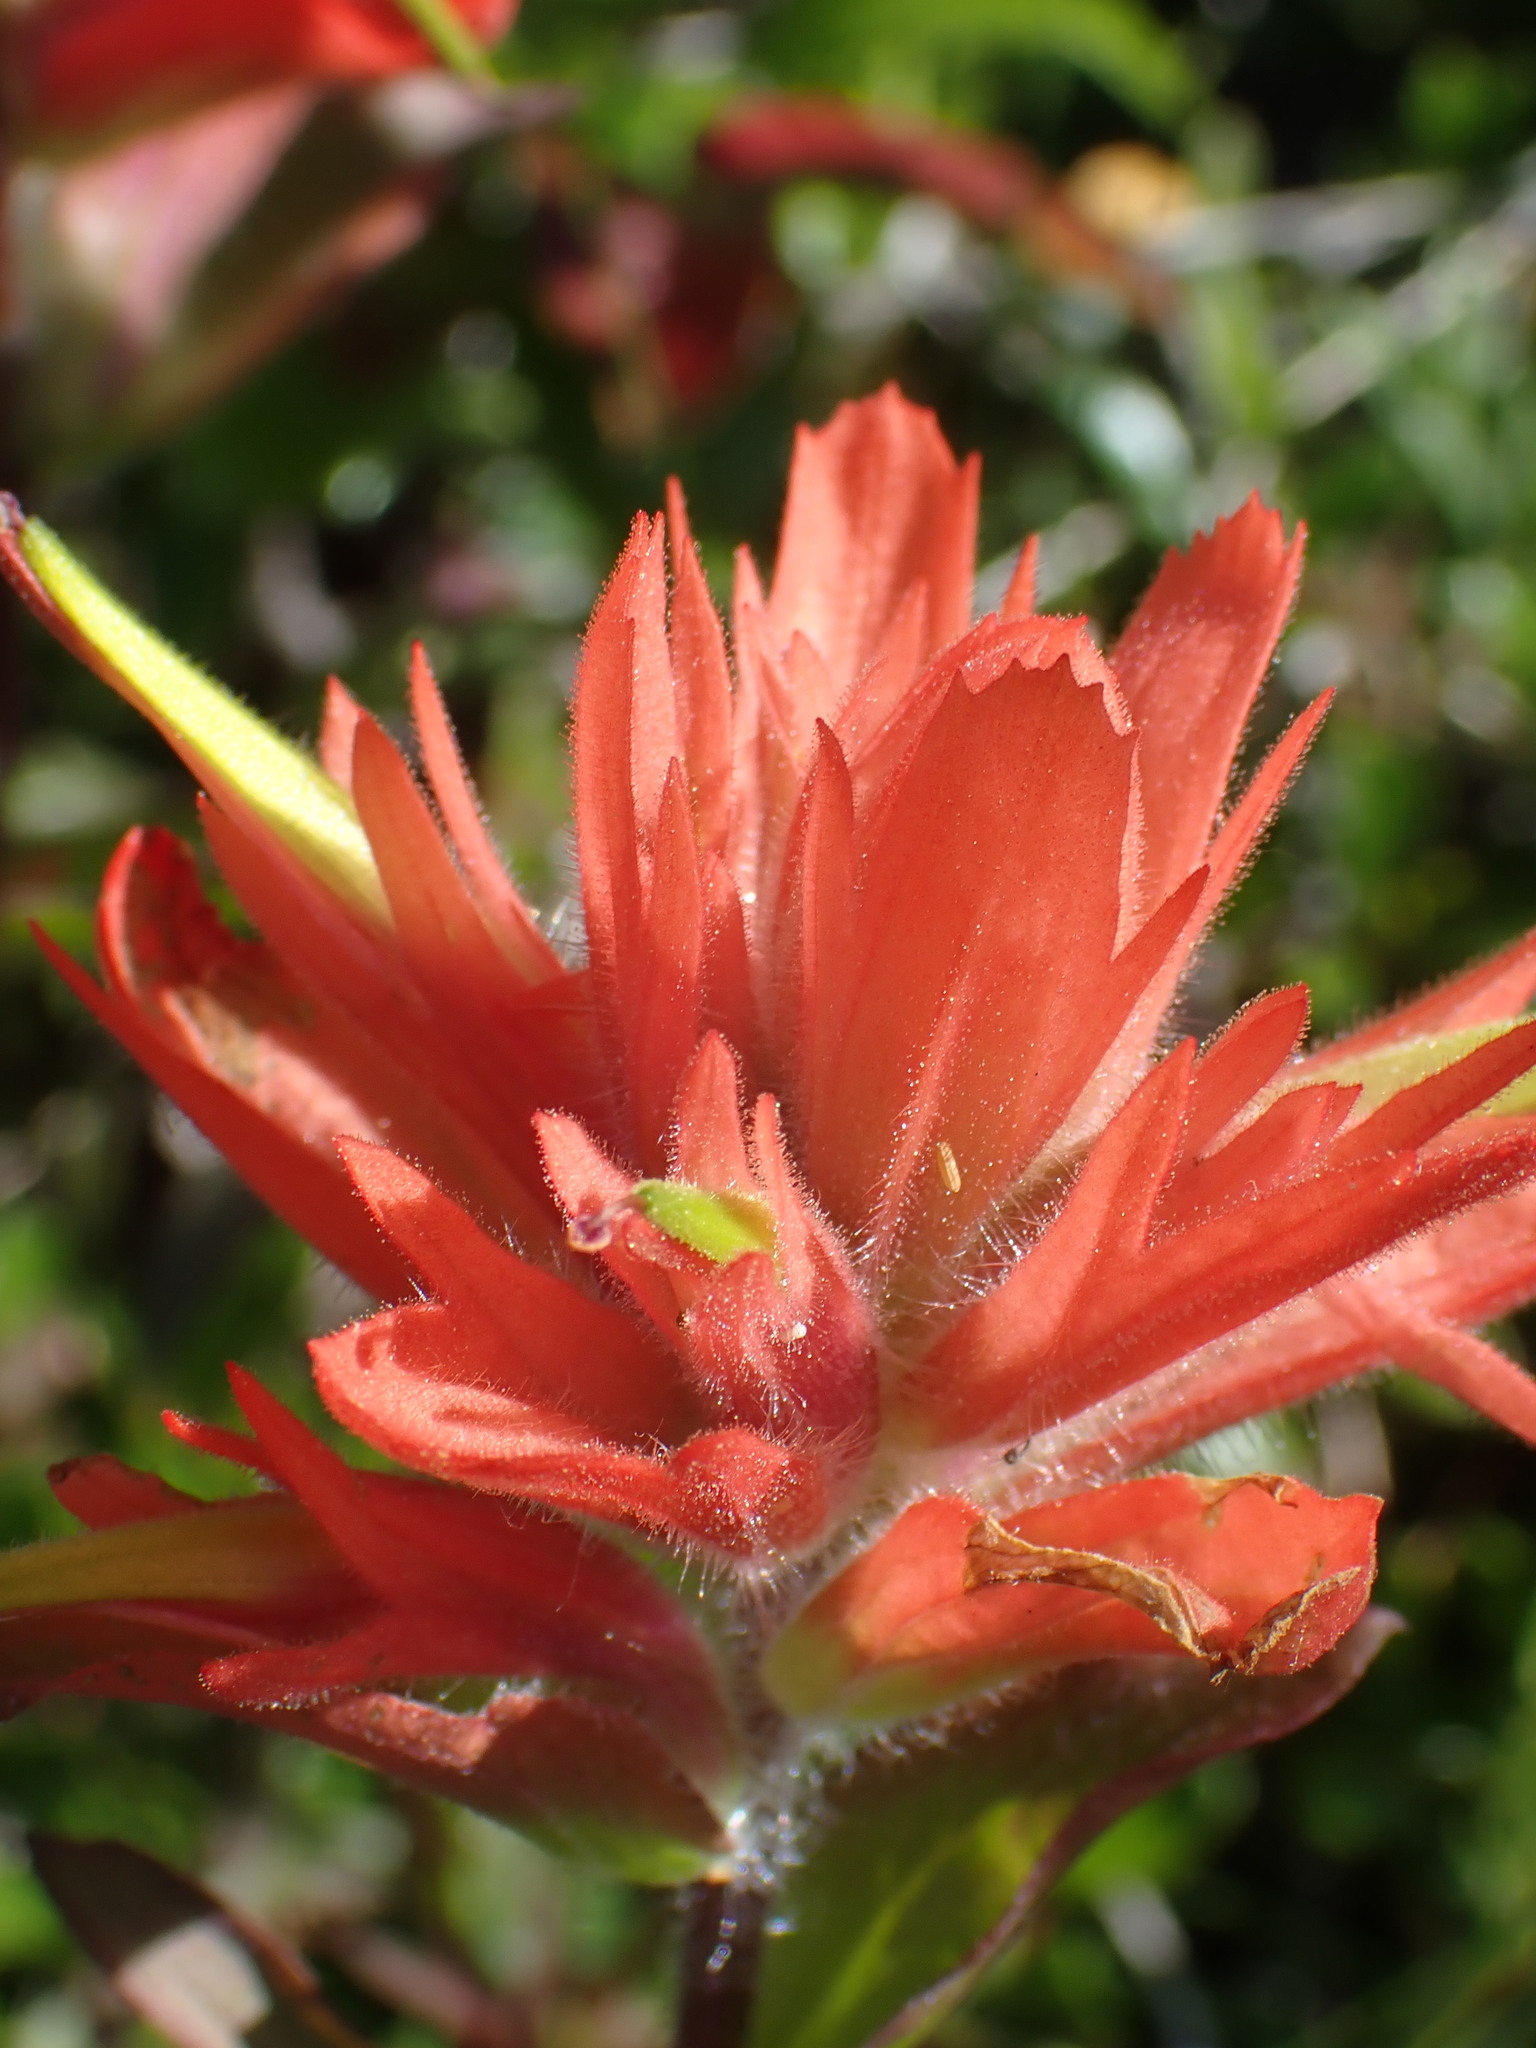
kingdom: Plantae
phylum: Tracheophyta
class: Magnoliopsida
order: Lamiales
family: Orobanchaceae
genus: Castilleja
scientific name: Castilleja miniata
